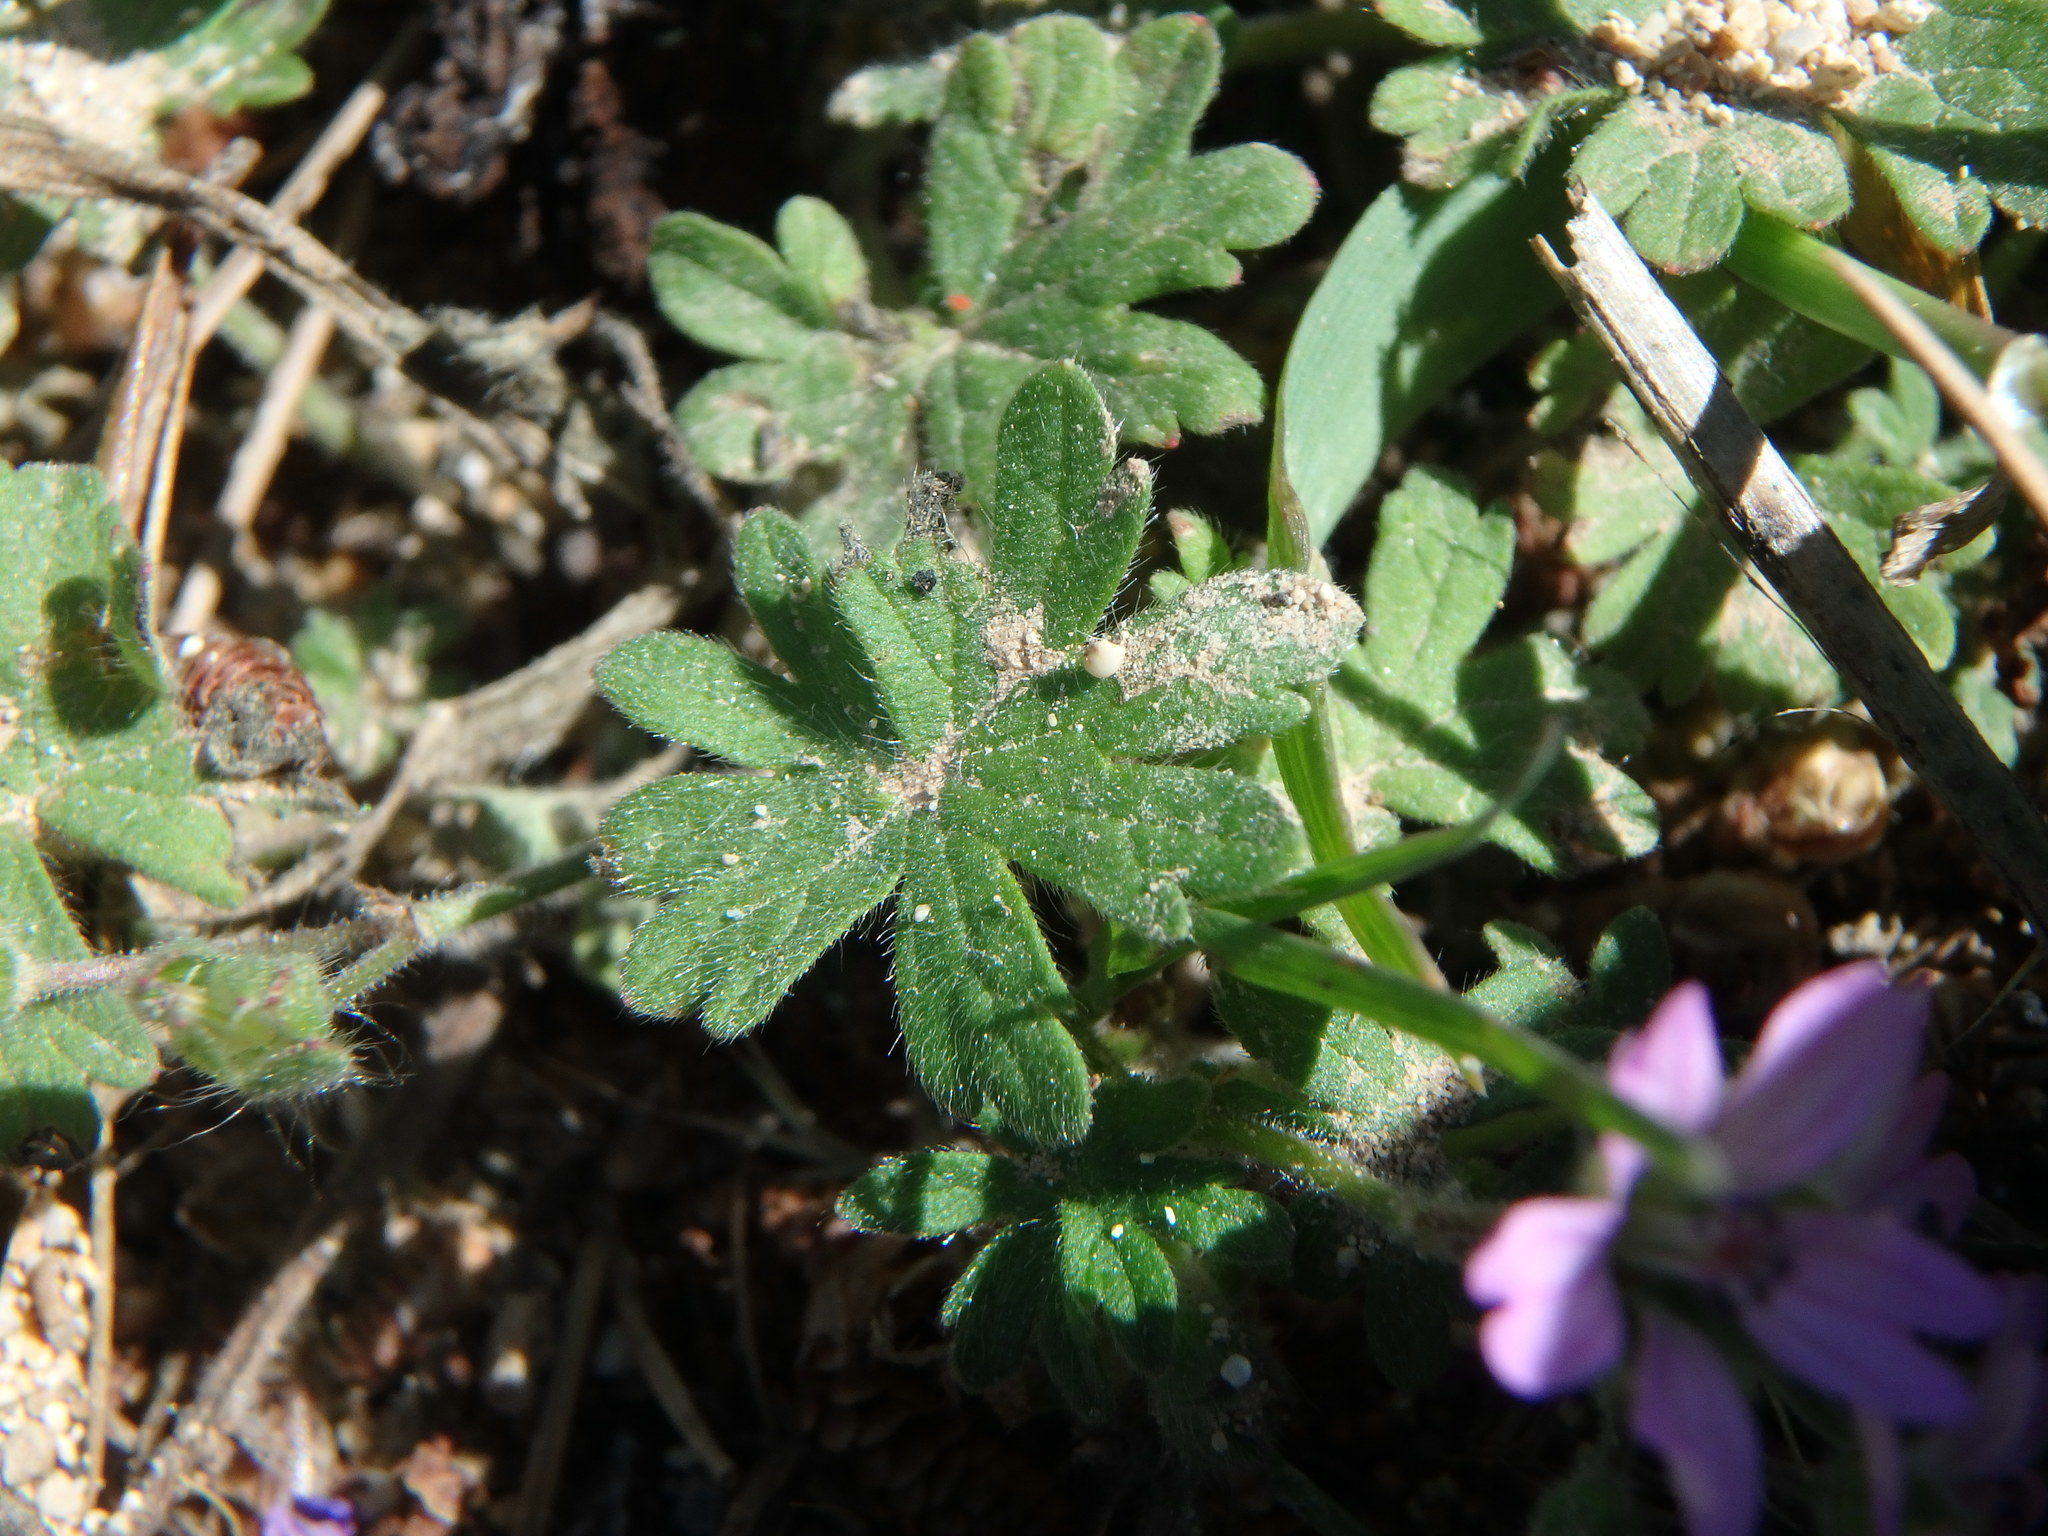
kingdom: Plantae
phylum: Tracheophyta
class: Magnoliopsida
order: Geraniales
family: Geraniaceae
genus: Geranium
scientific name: Geranium molle
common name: Dove's-foot crane's-bill
